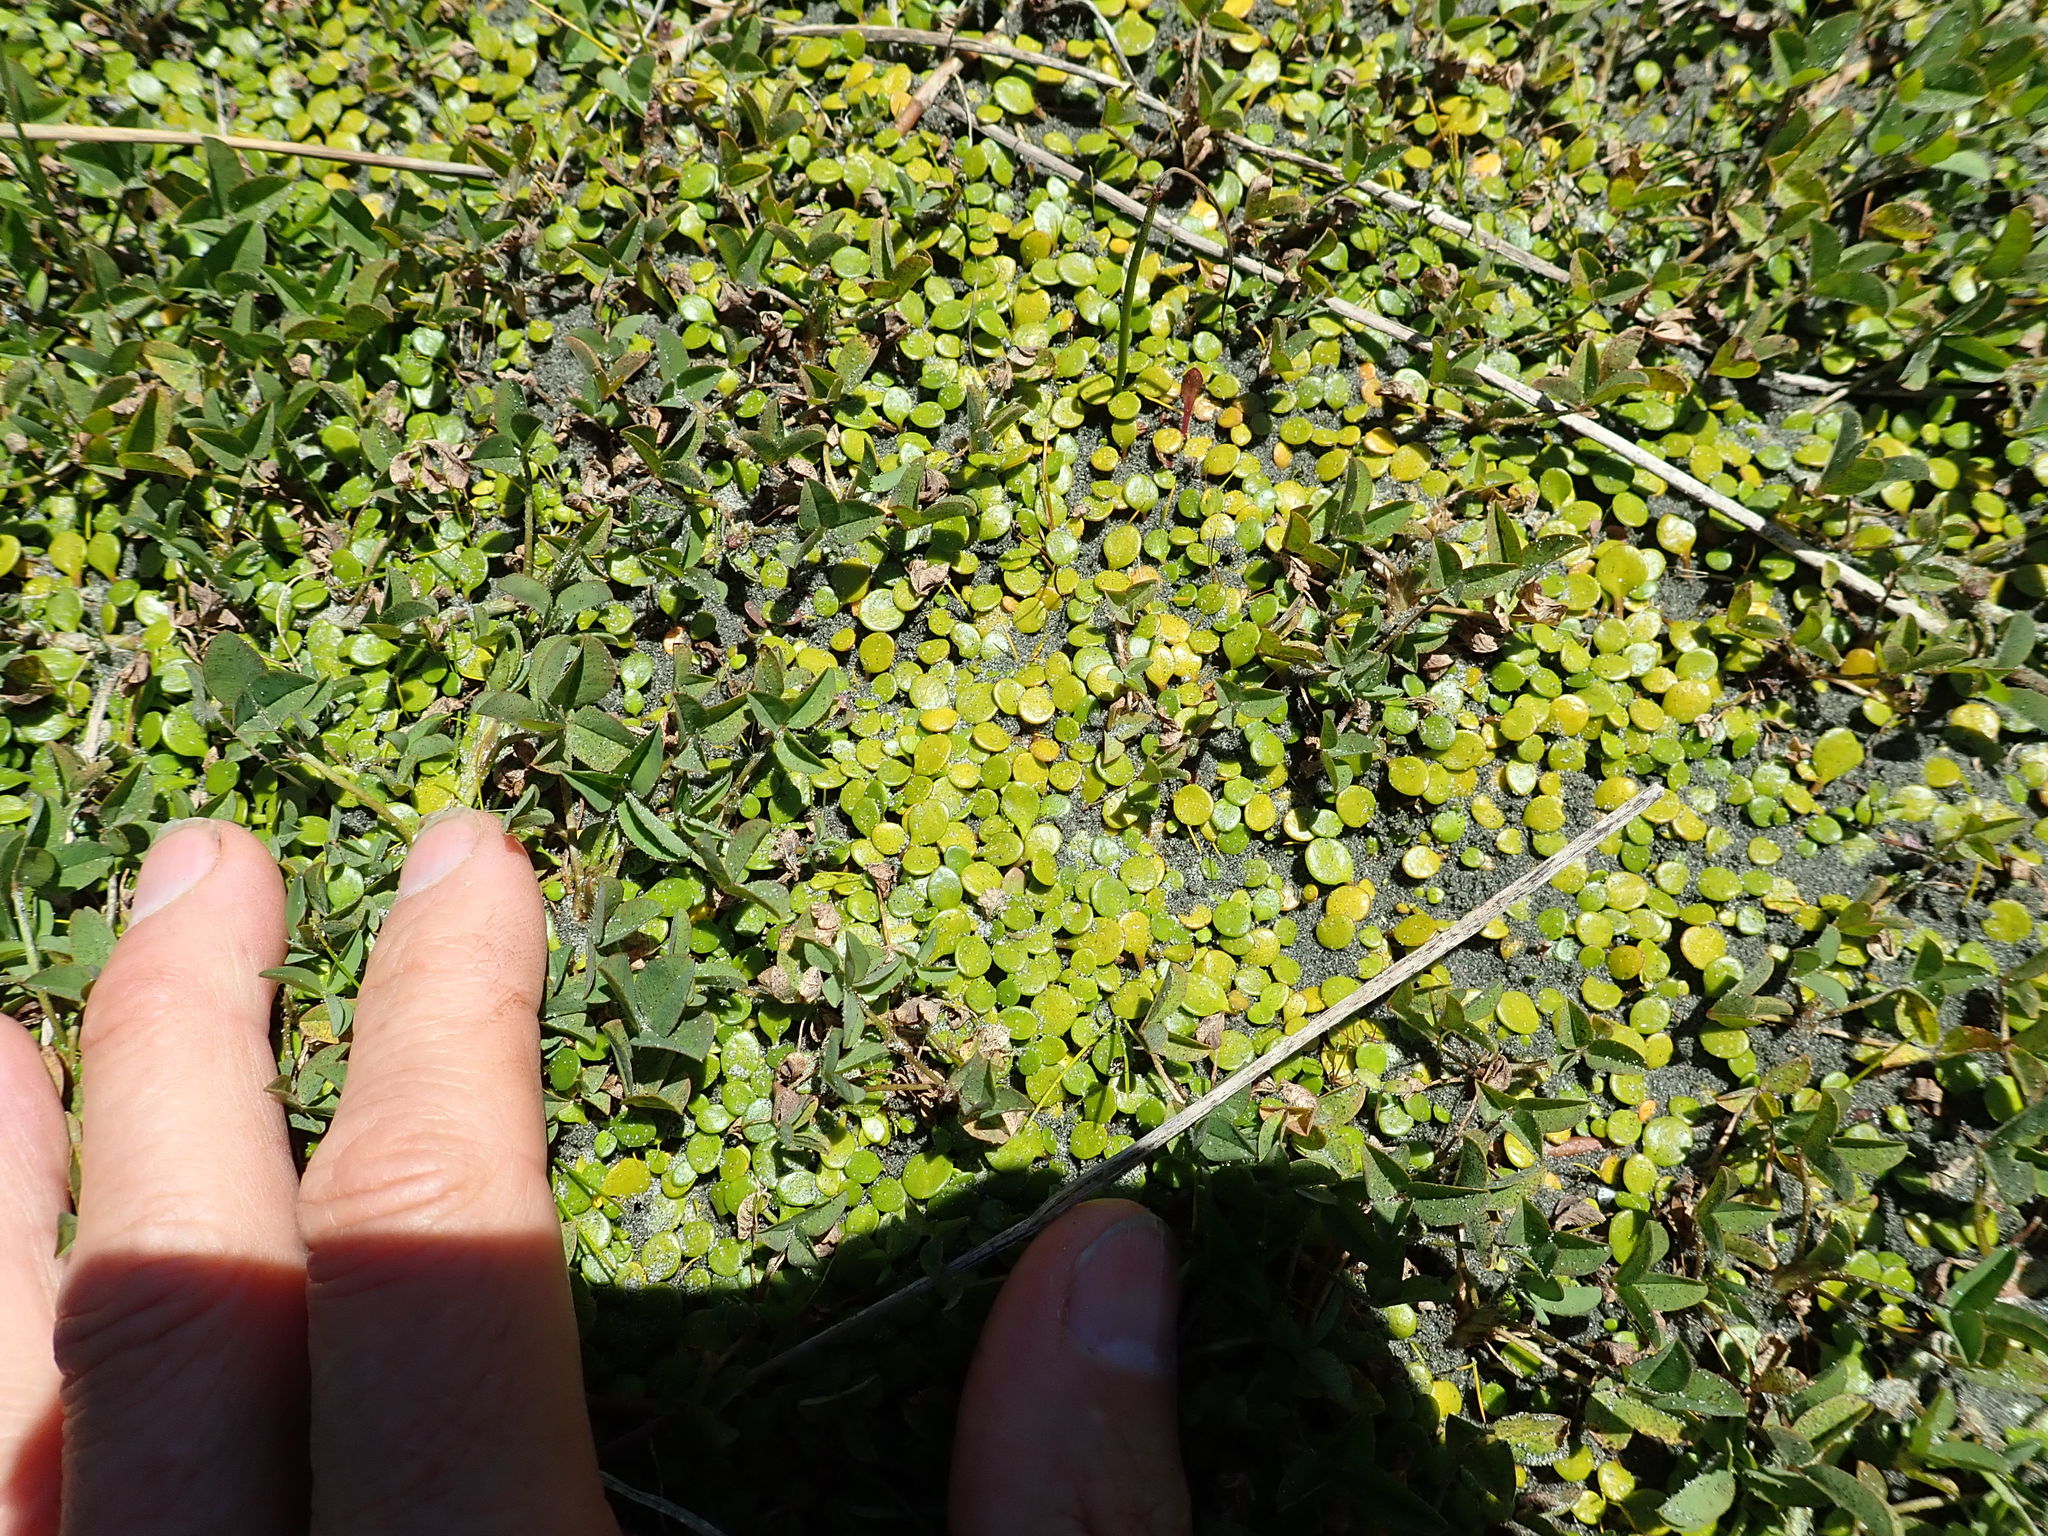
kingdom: Plantae
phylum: Tracheophyta
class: Magnoliopsida
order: Asterales
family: Goodeniaceae
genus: Goodenia
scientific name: Goodenia heenanii
